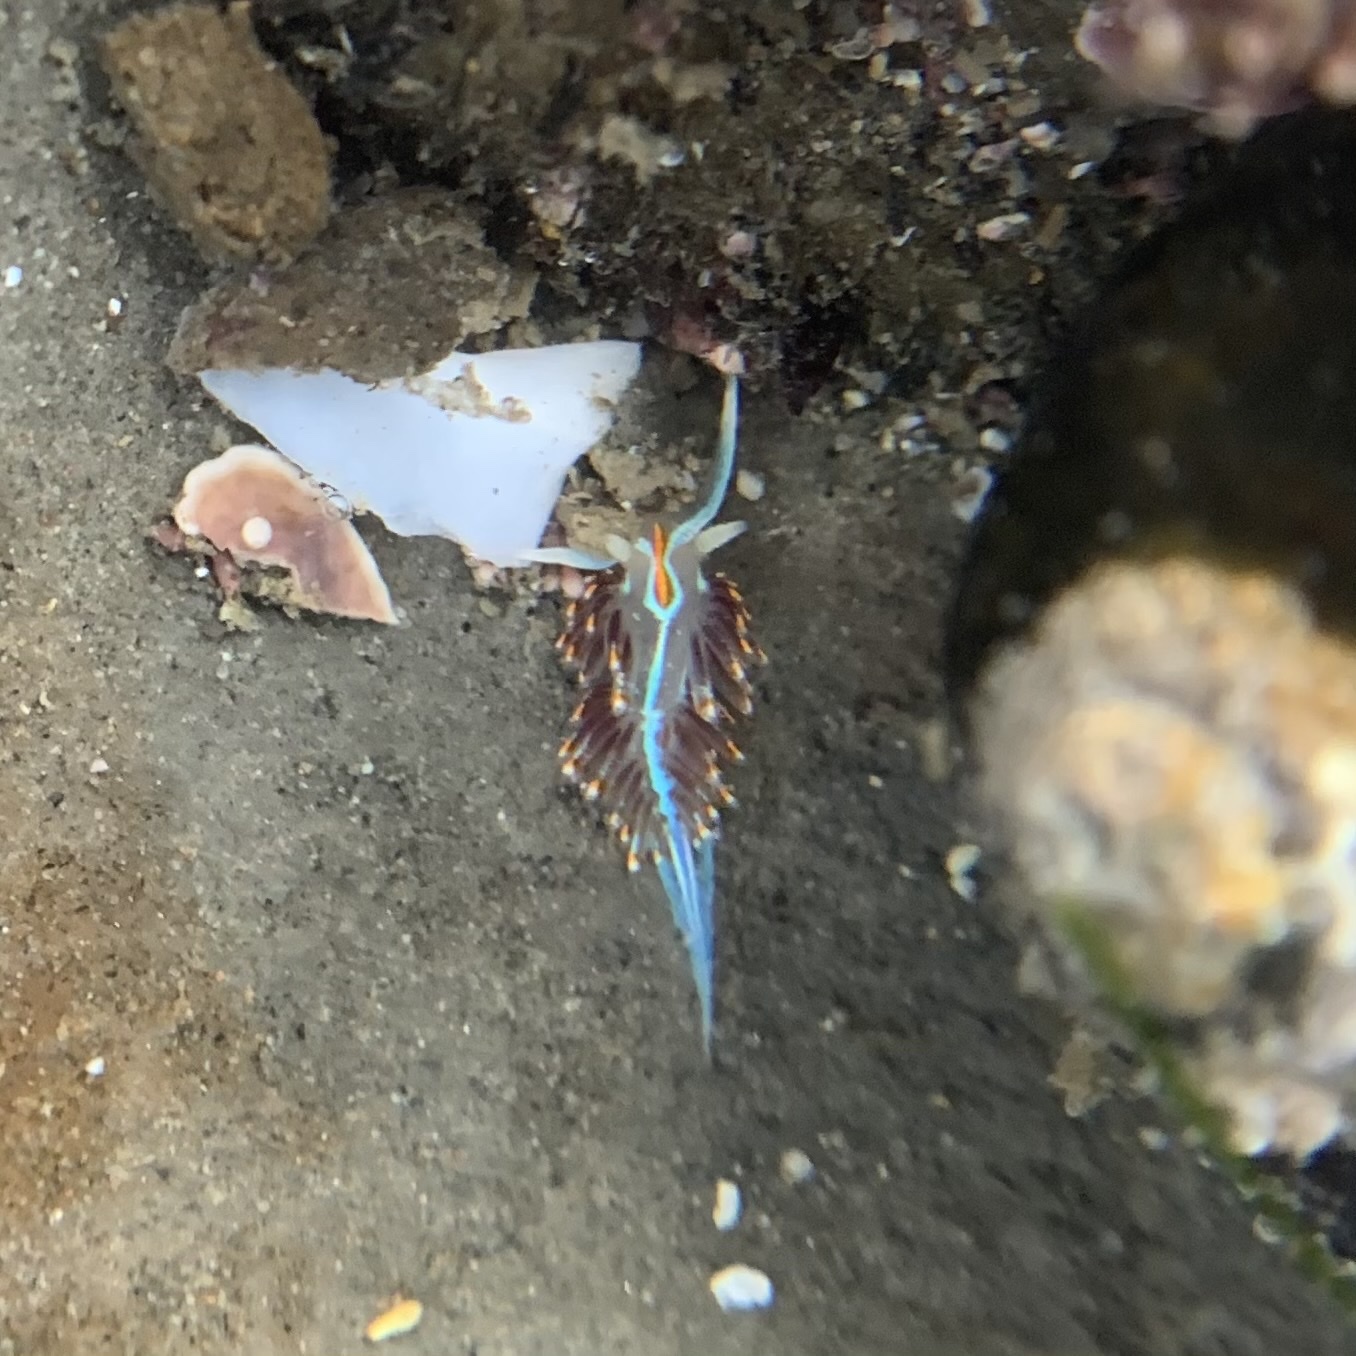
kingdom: Animalia
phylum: Mollusca
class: Gastropoda
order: Nudibranchia
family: Myrrhinidae
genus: Hermissenda
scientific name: Hermissenda crassicornis
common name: Hermissenda
